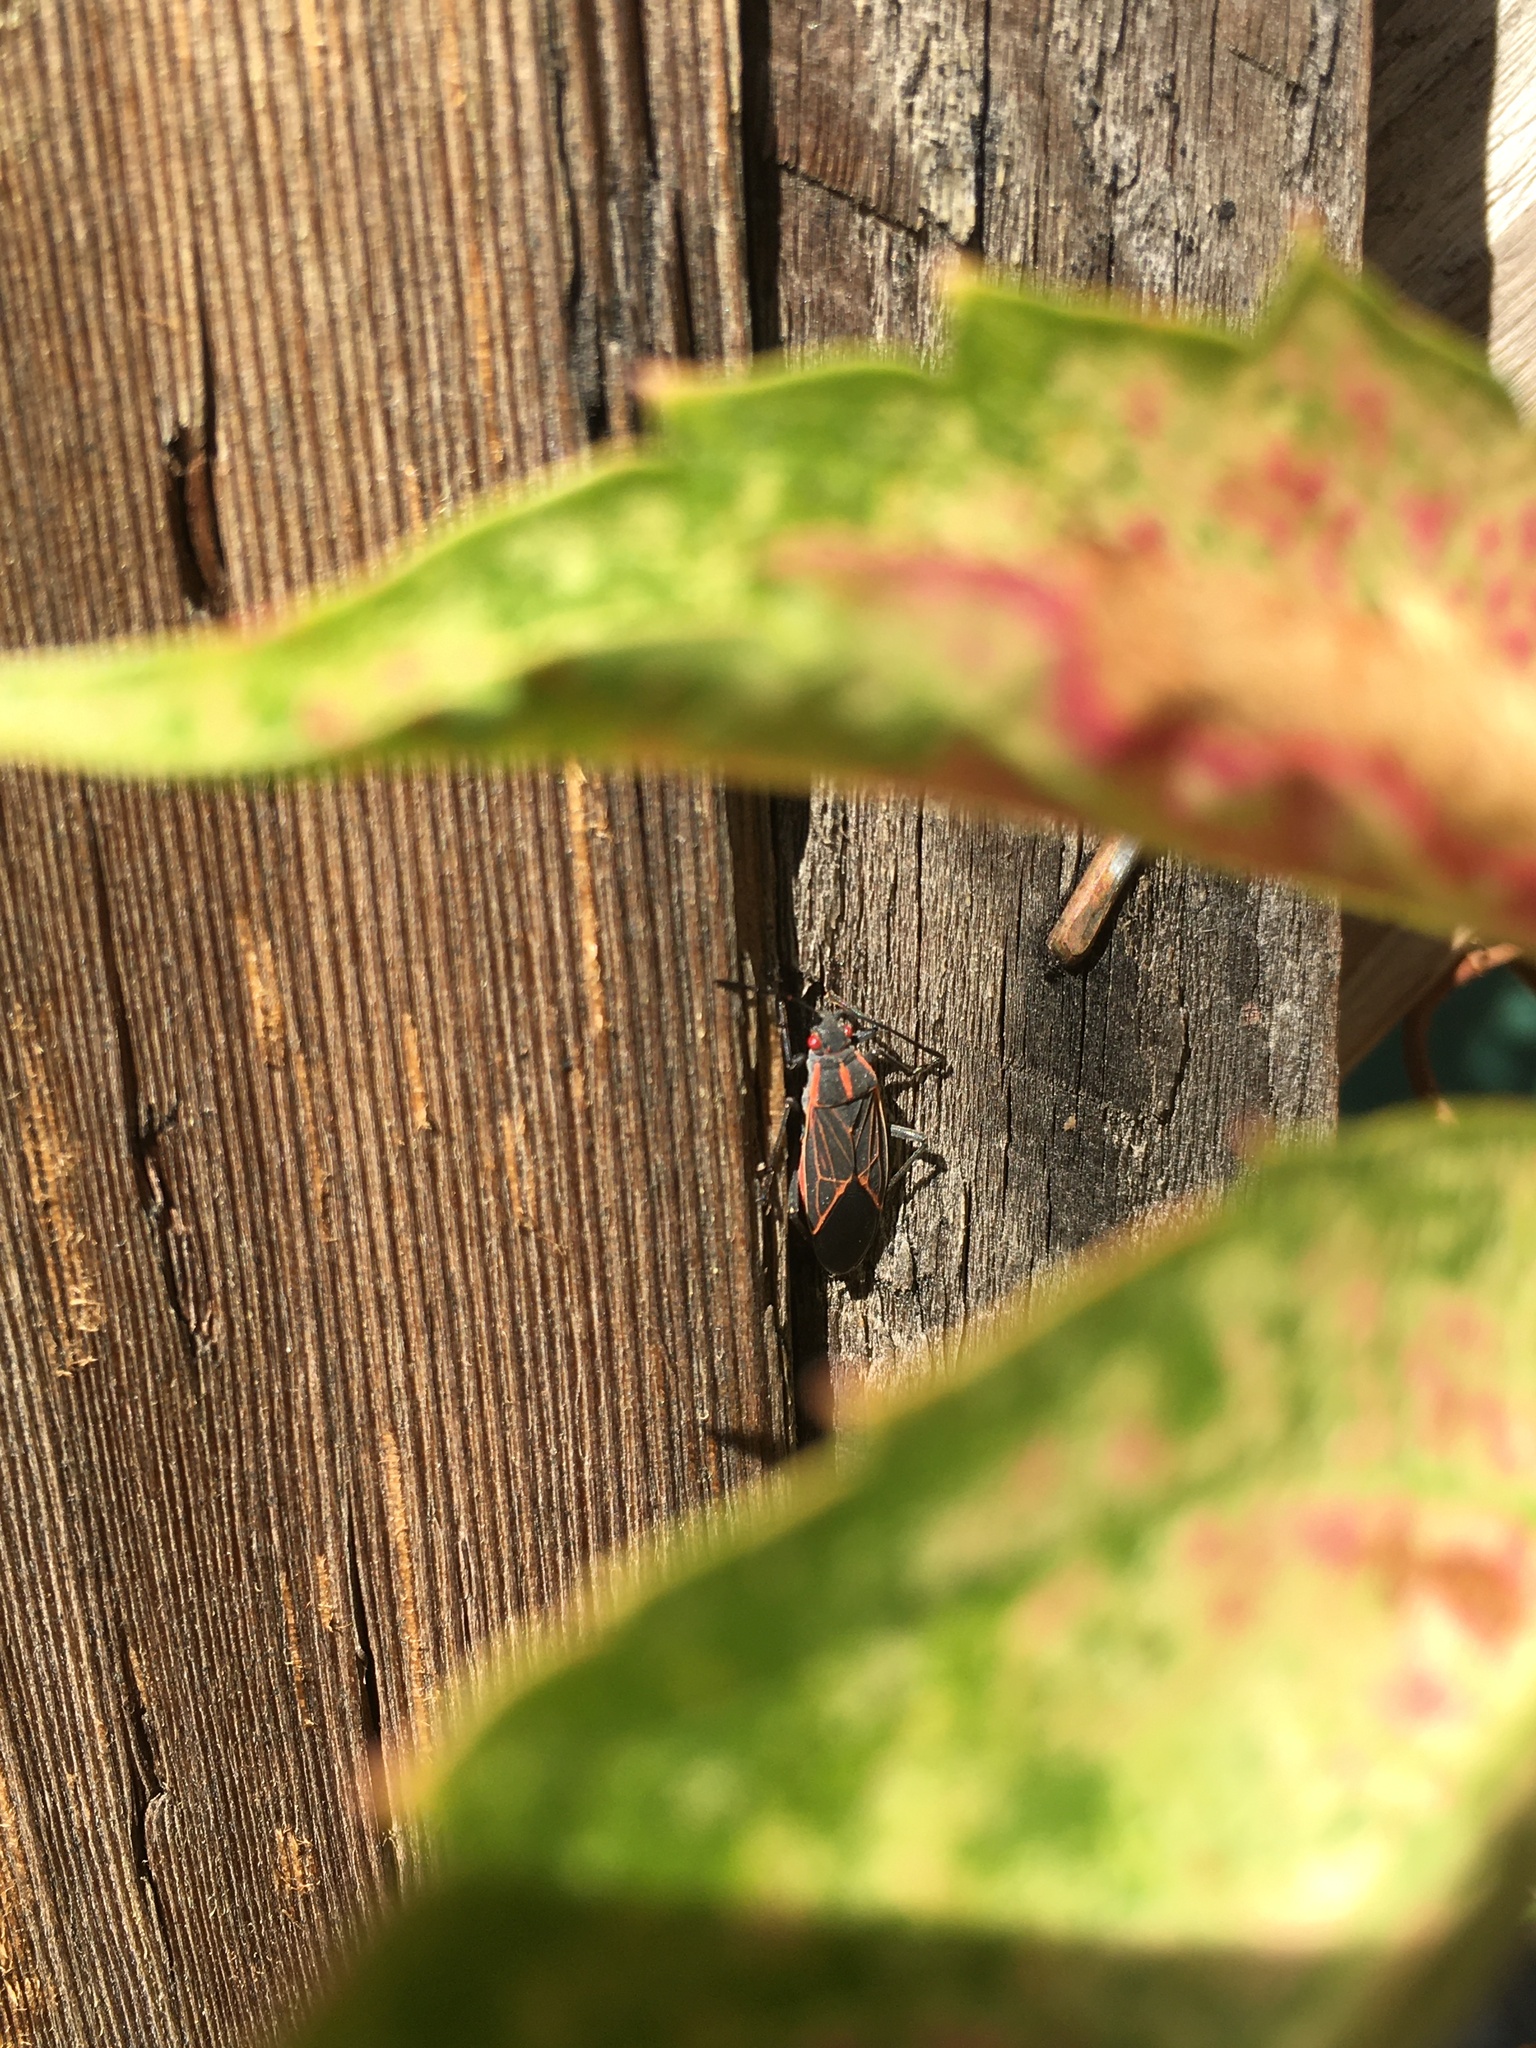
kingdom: Animalia
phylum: Arthropoda
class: Insecta
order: Hemiptera
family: Rhopalidae
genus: Boisea
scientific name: Boisea rubrolineata
